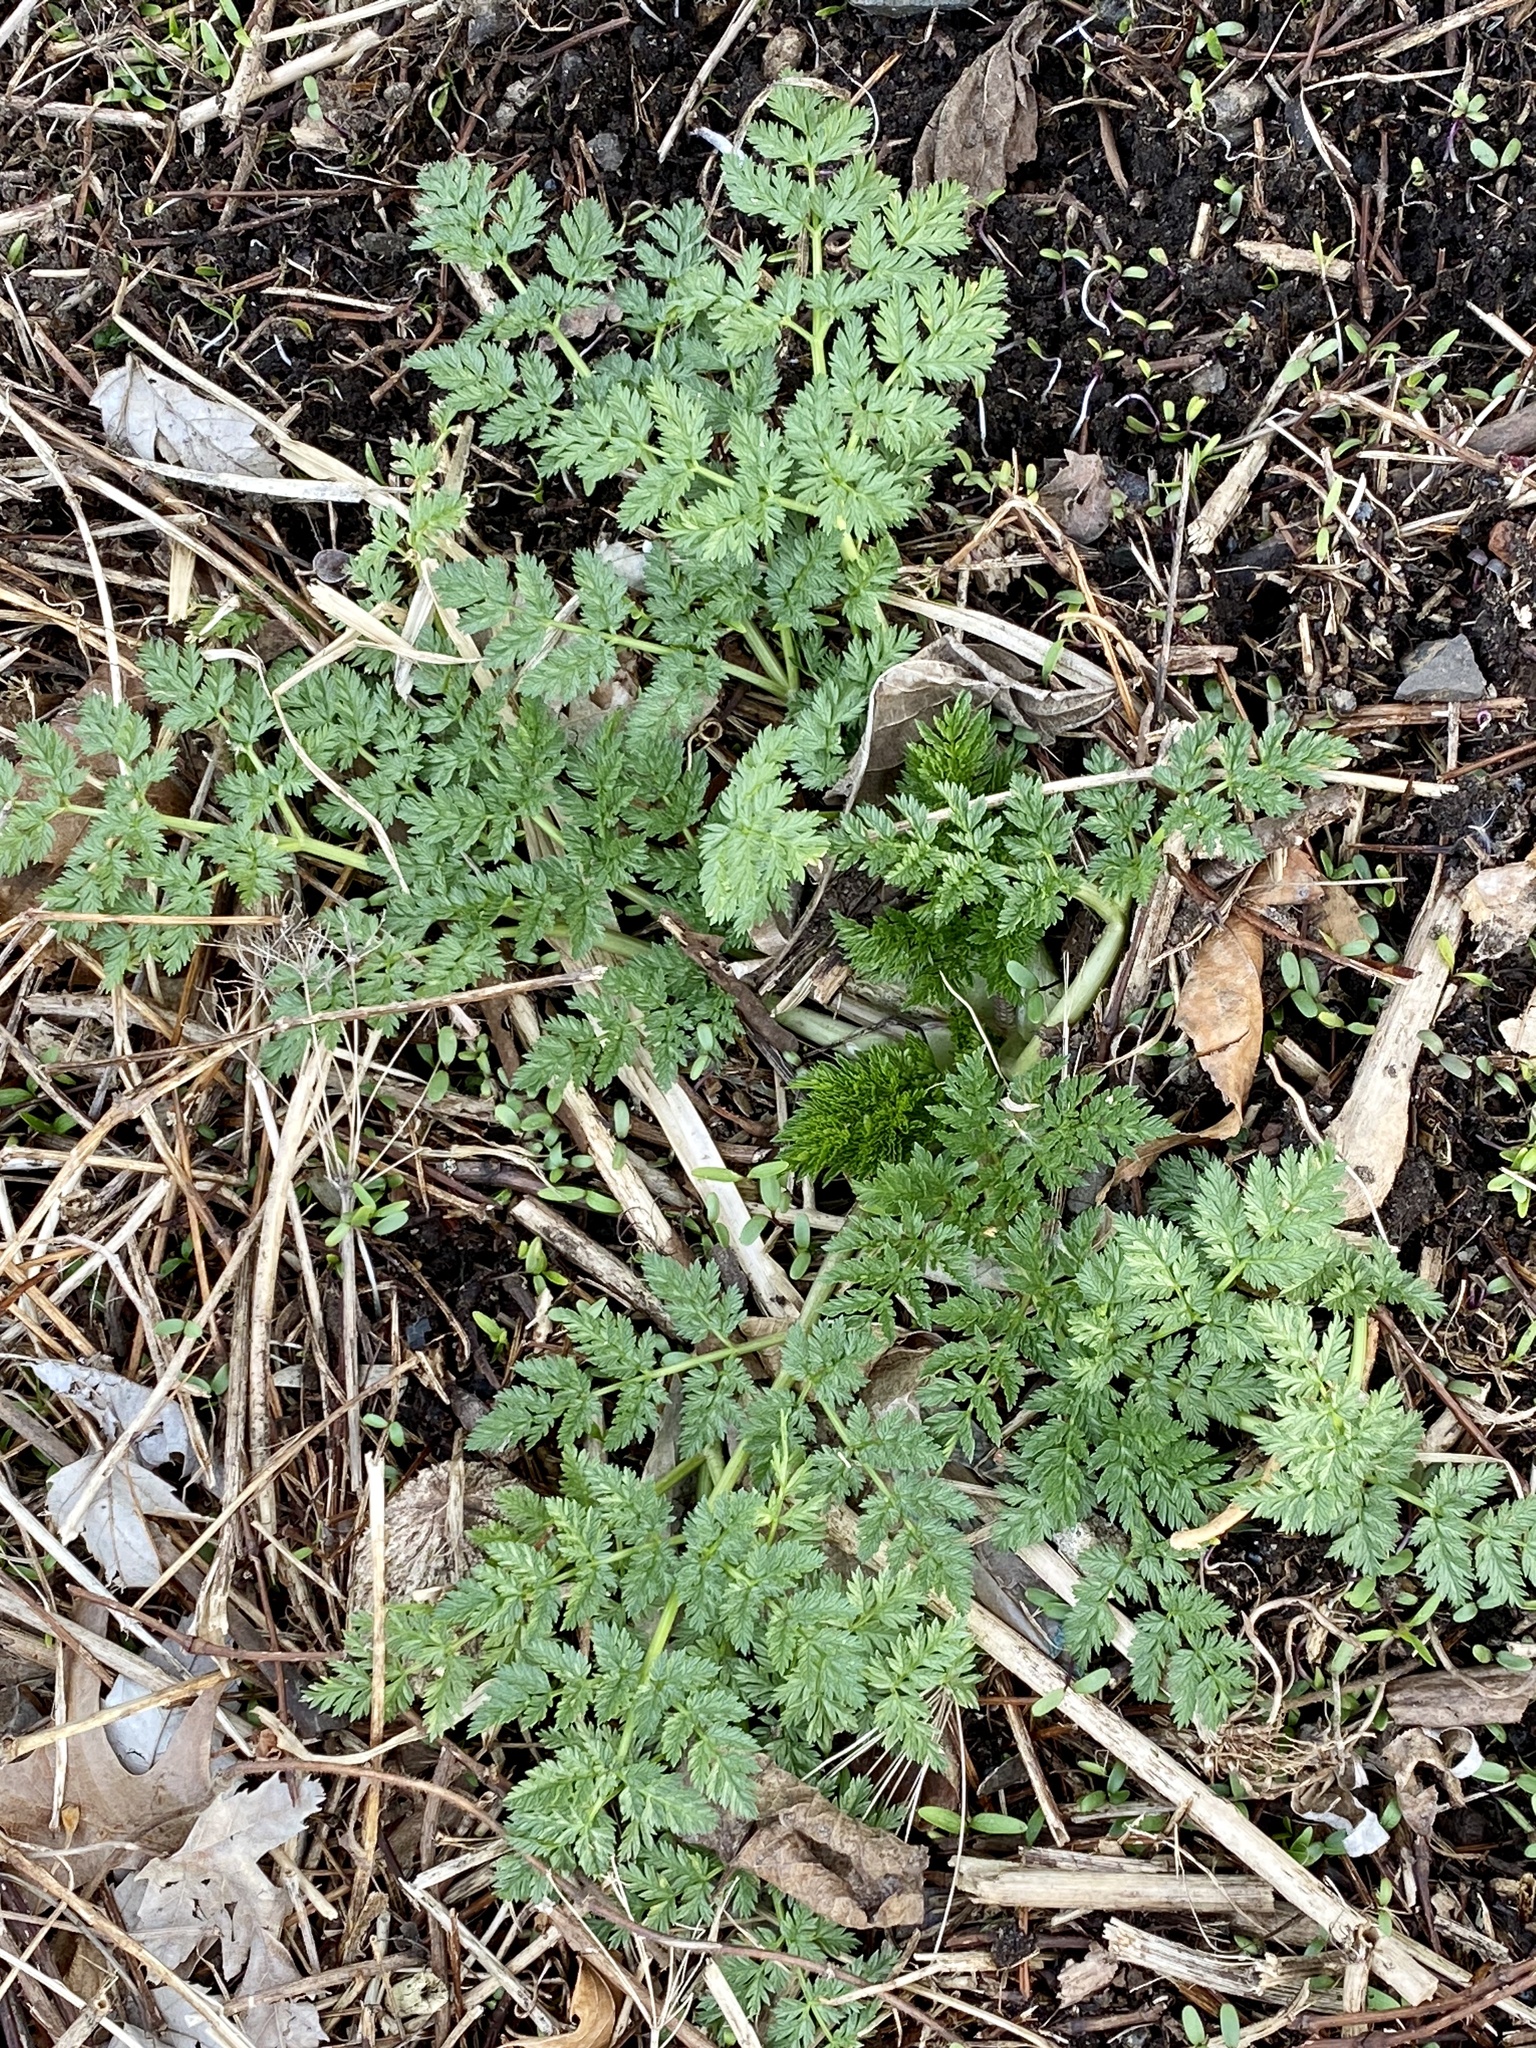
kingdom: Plantae
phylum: Tracheophyta
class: Magnoliopsida
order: Apiales
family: Apiaceae
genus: Conium
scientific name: Conium maculatum
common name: Hemlock
